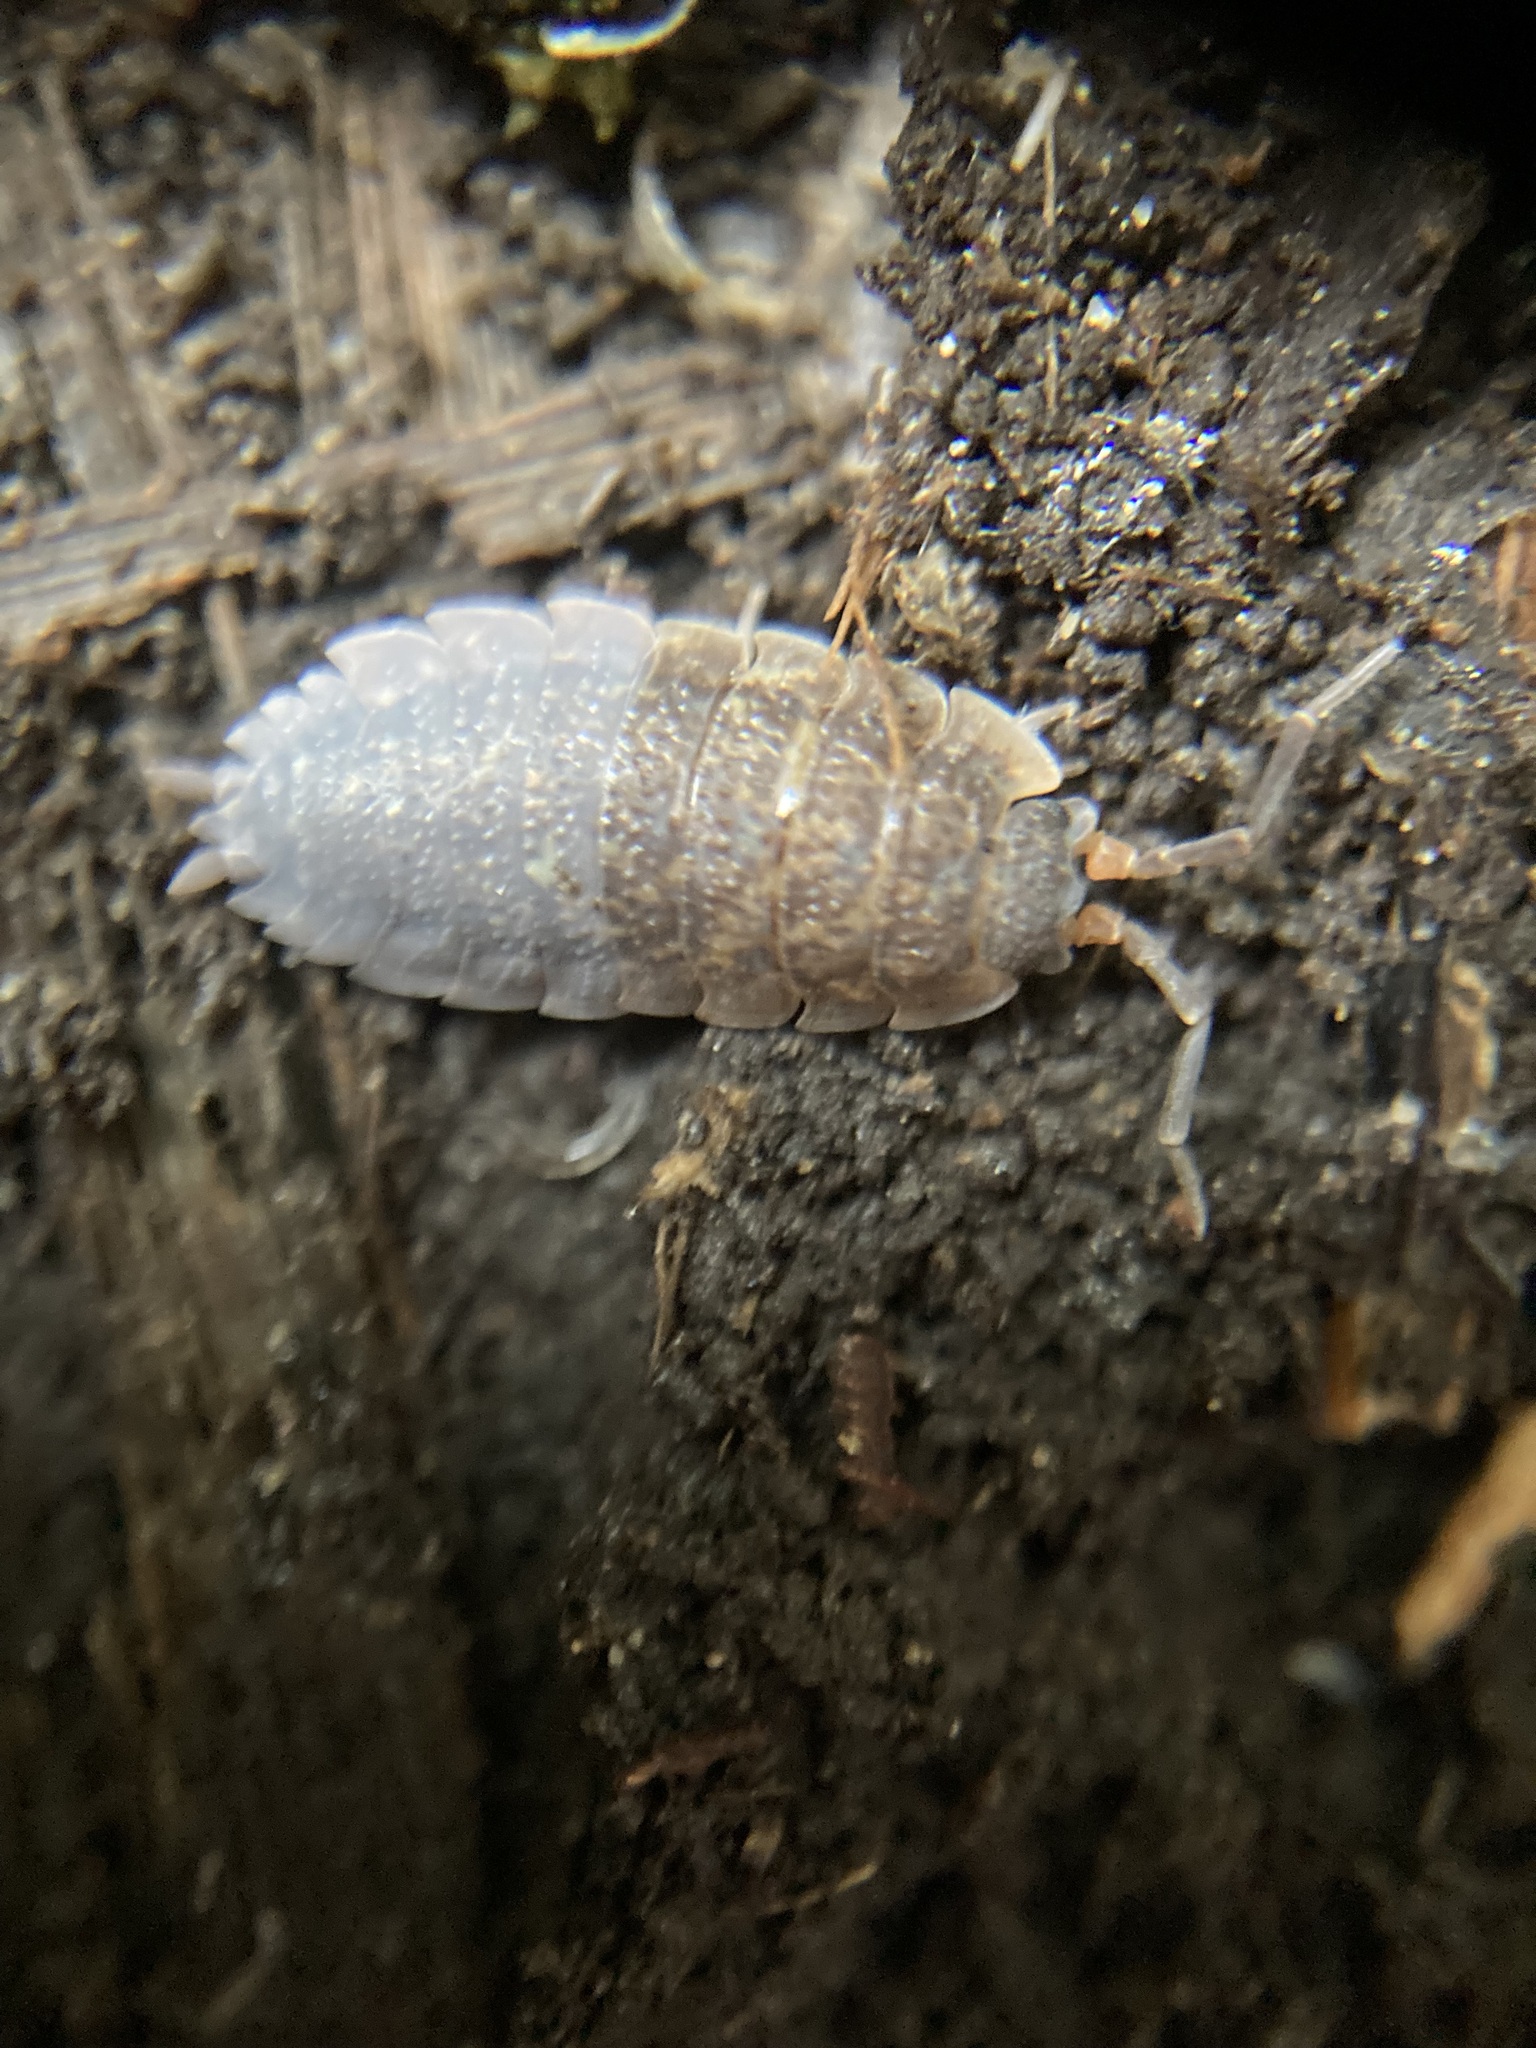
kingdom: Animalia
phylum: Arthropoda
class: Malacostraca
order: Isopoda
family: Porcellionidae
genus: Porcellio
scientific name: Porcellio scaber
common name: Common rough woodlouse
